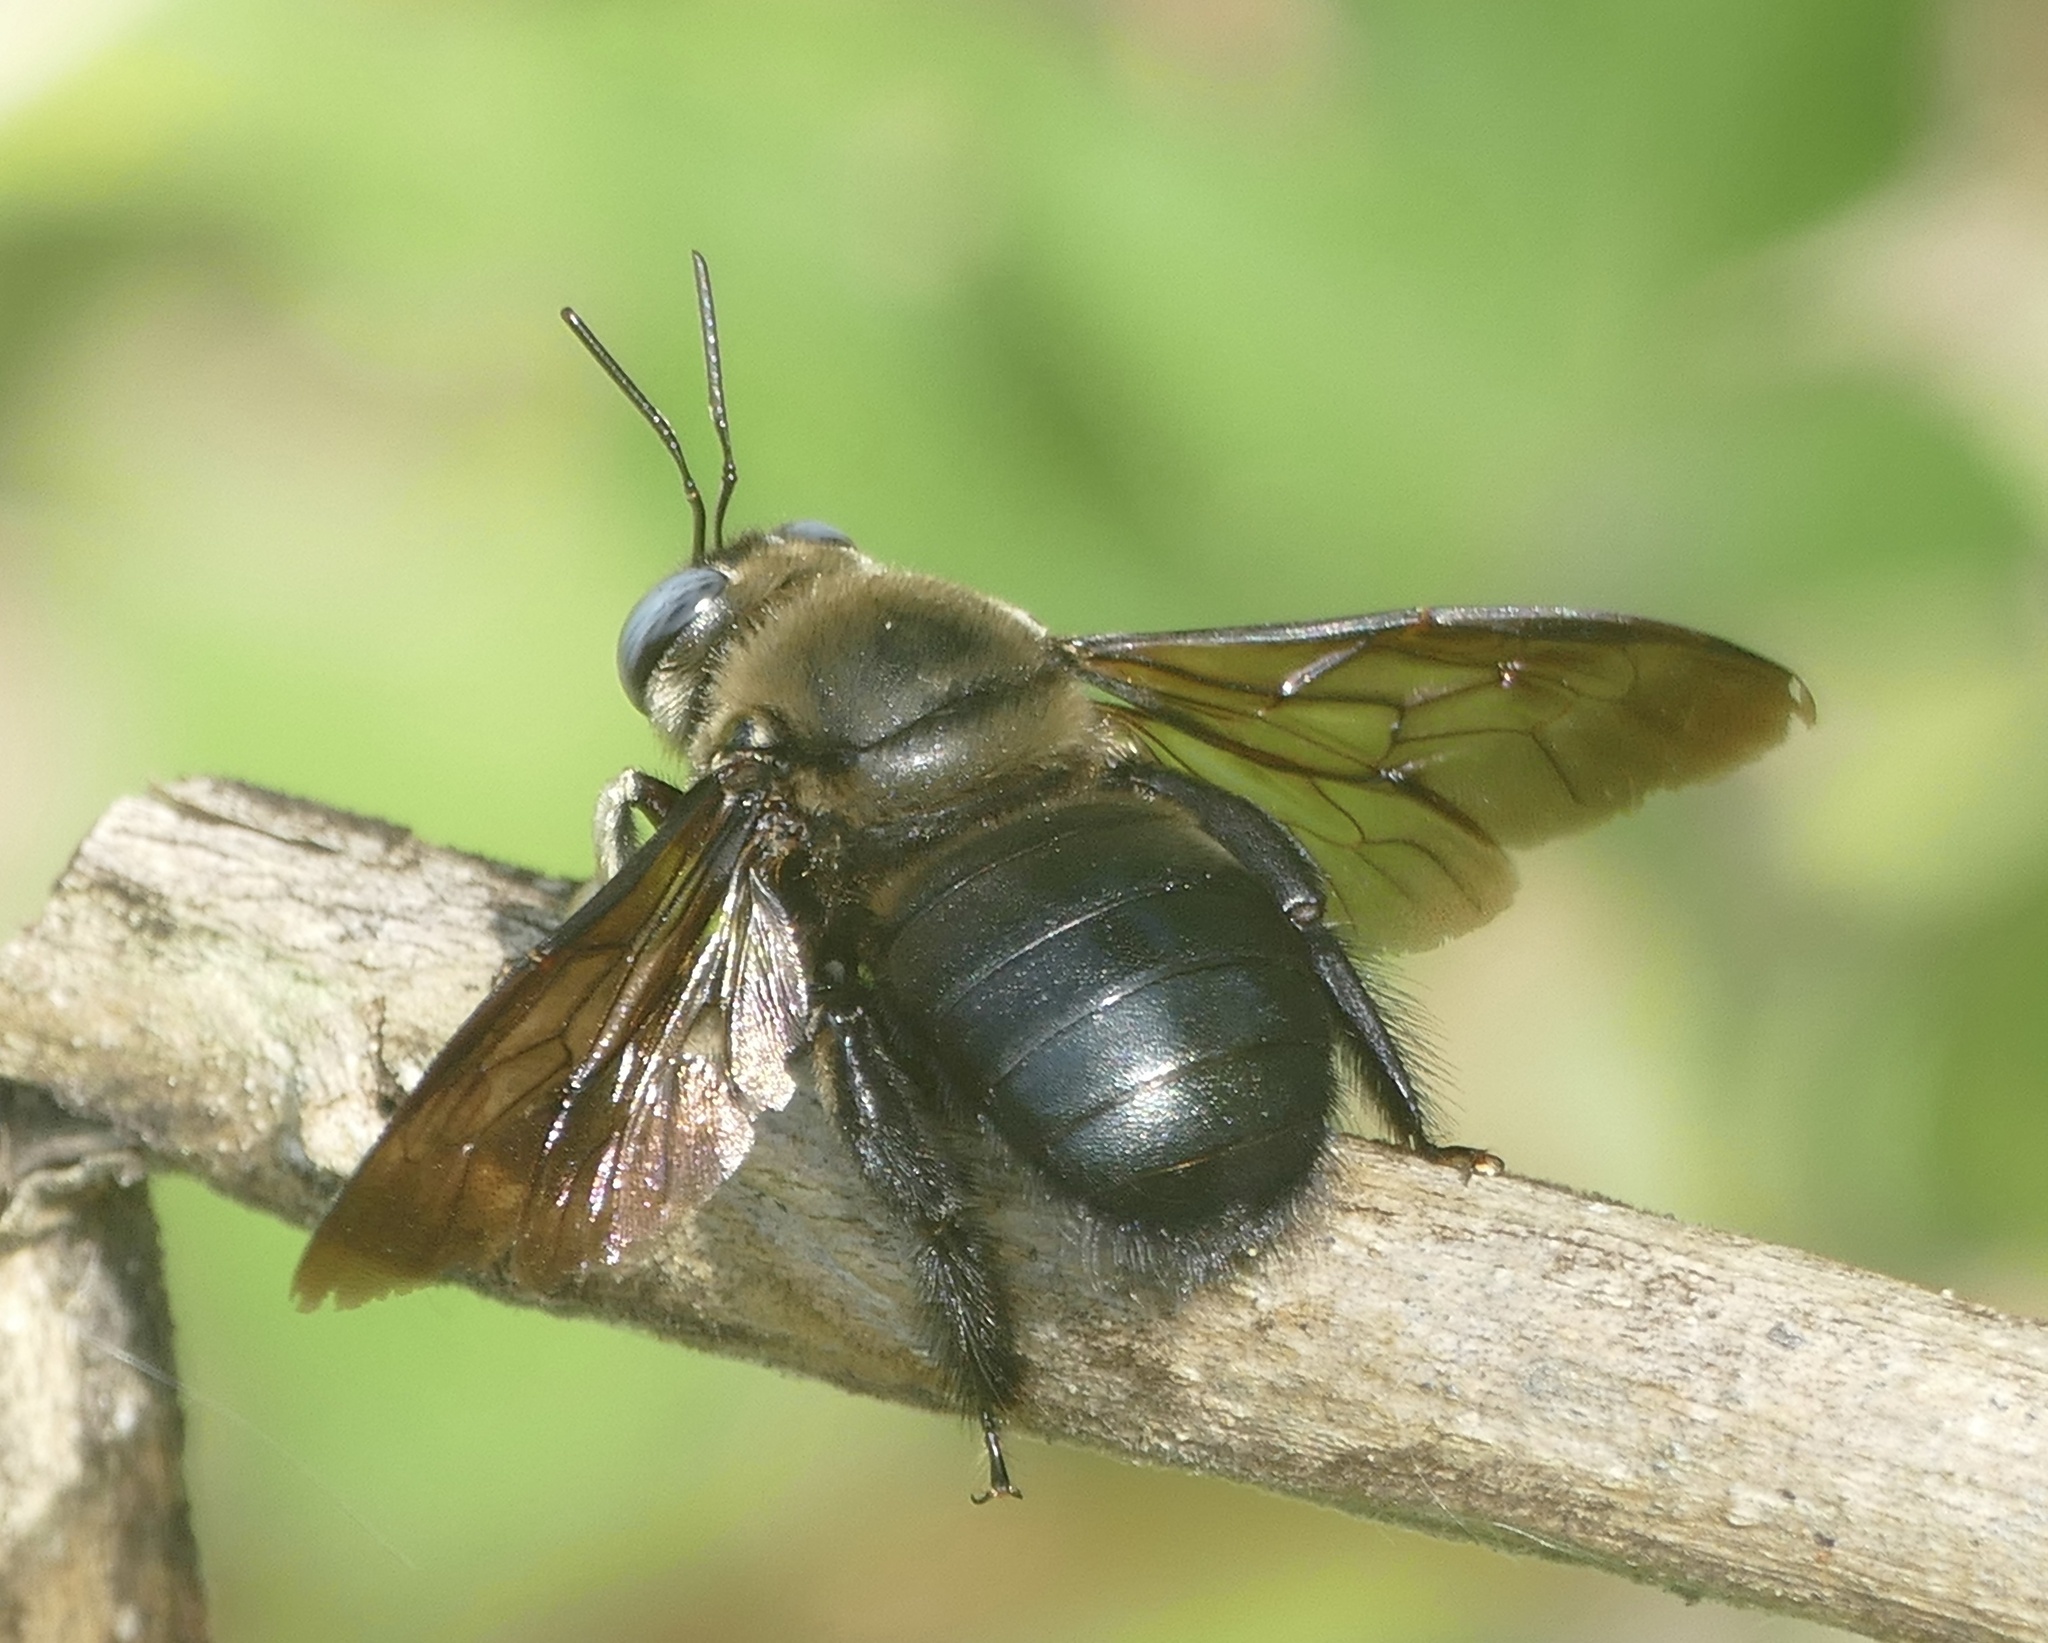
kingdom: Animalia
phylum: Arthropoda
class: Insecta
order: Hymenoptera
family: Apidae
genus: Xylocopa
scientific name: Xylocopa dejeanii
